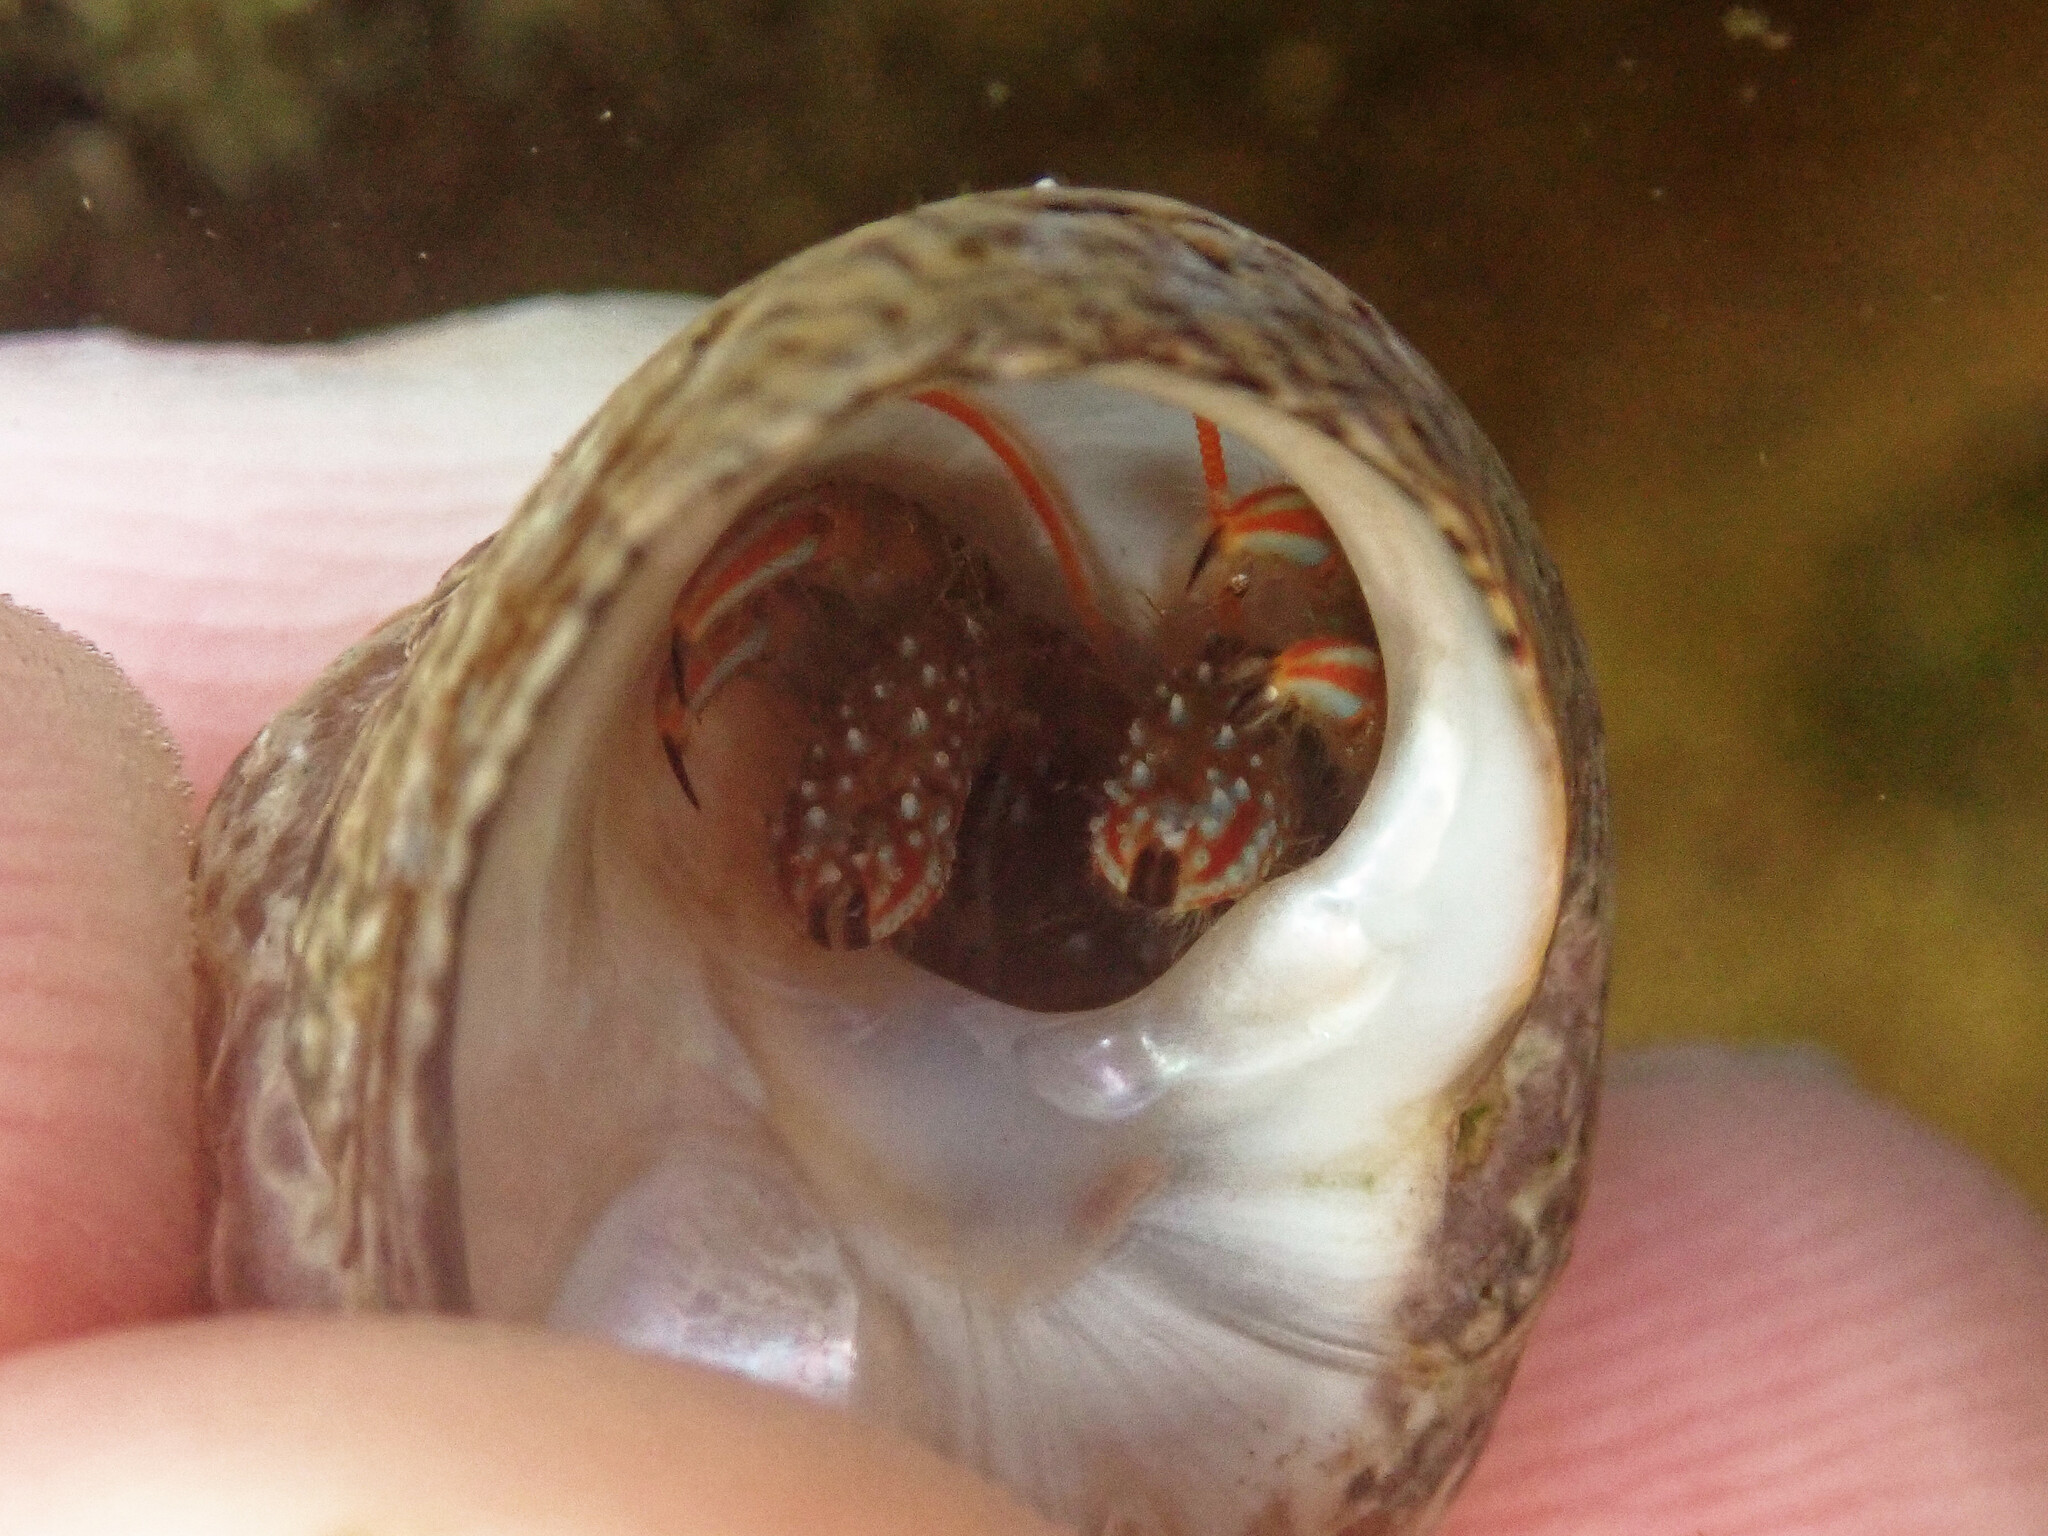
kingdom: Animalia
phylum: Arthropoda
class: Malacostraca
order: Decapoda
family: Diogenidae
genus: Clibanarius
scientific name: Clibanarius erythropus
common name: Hermit crab
